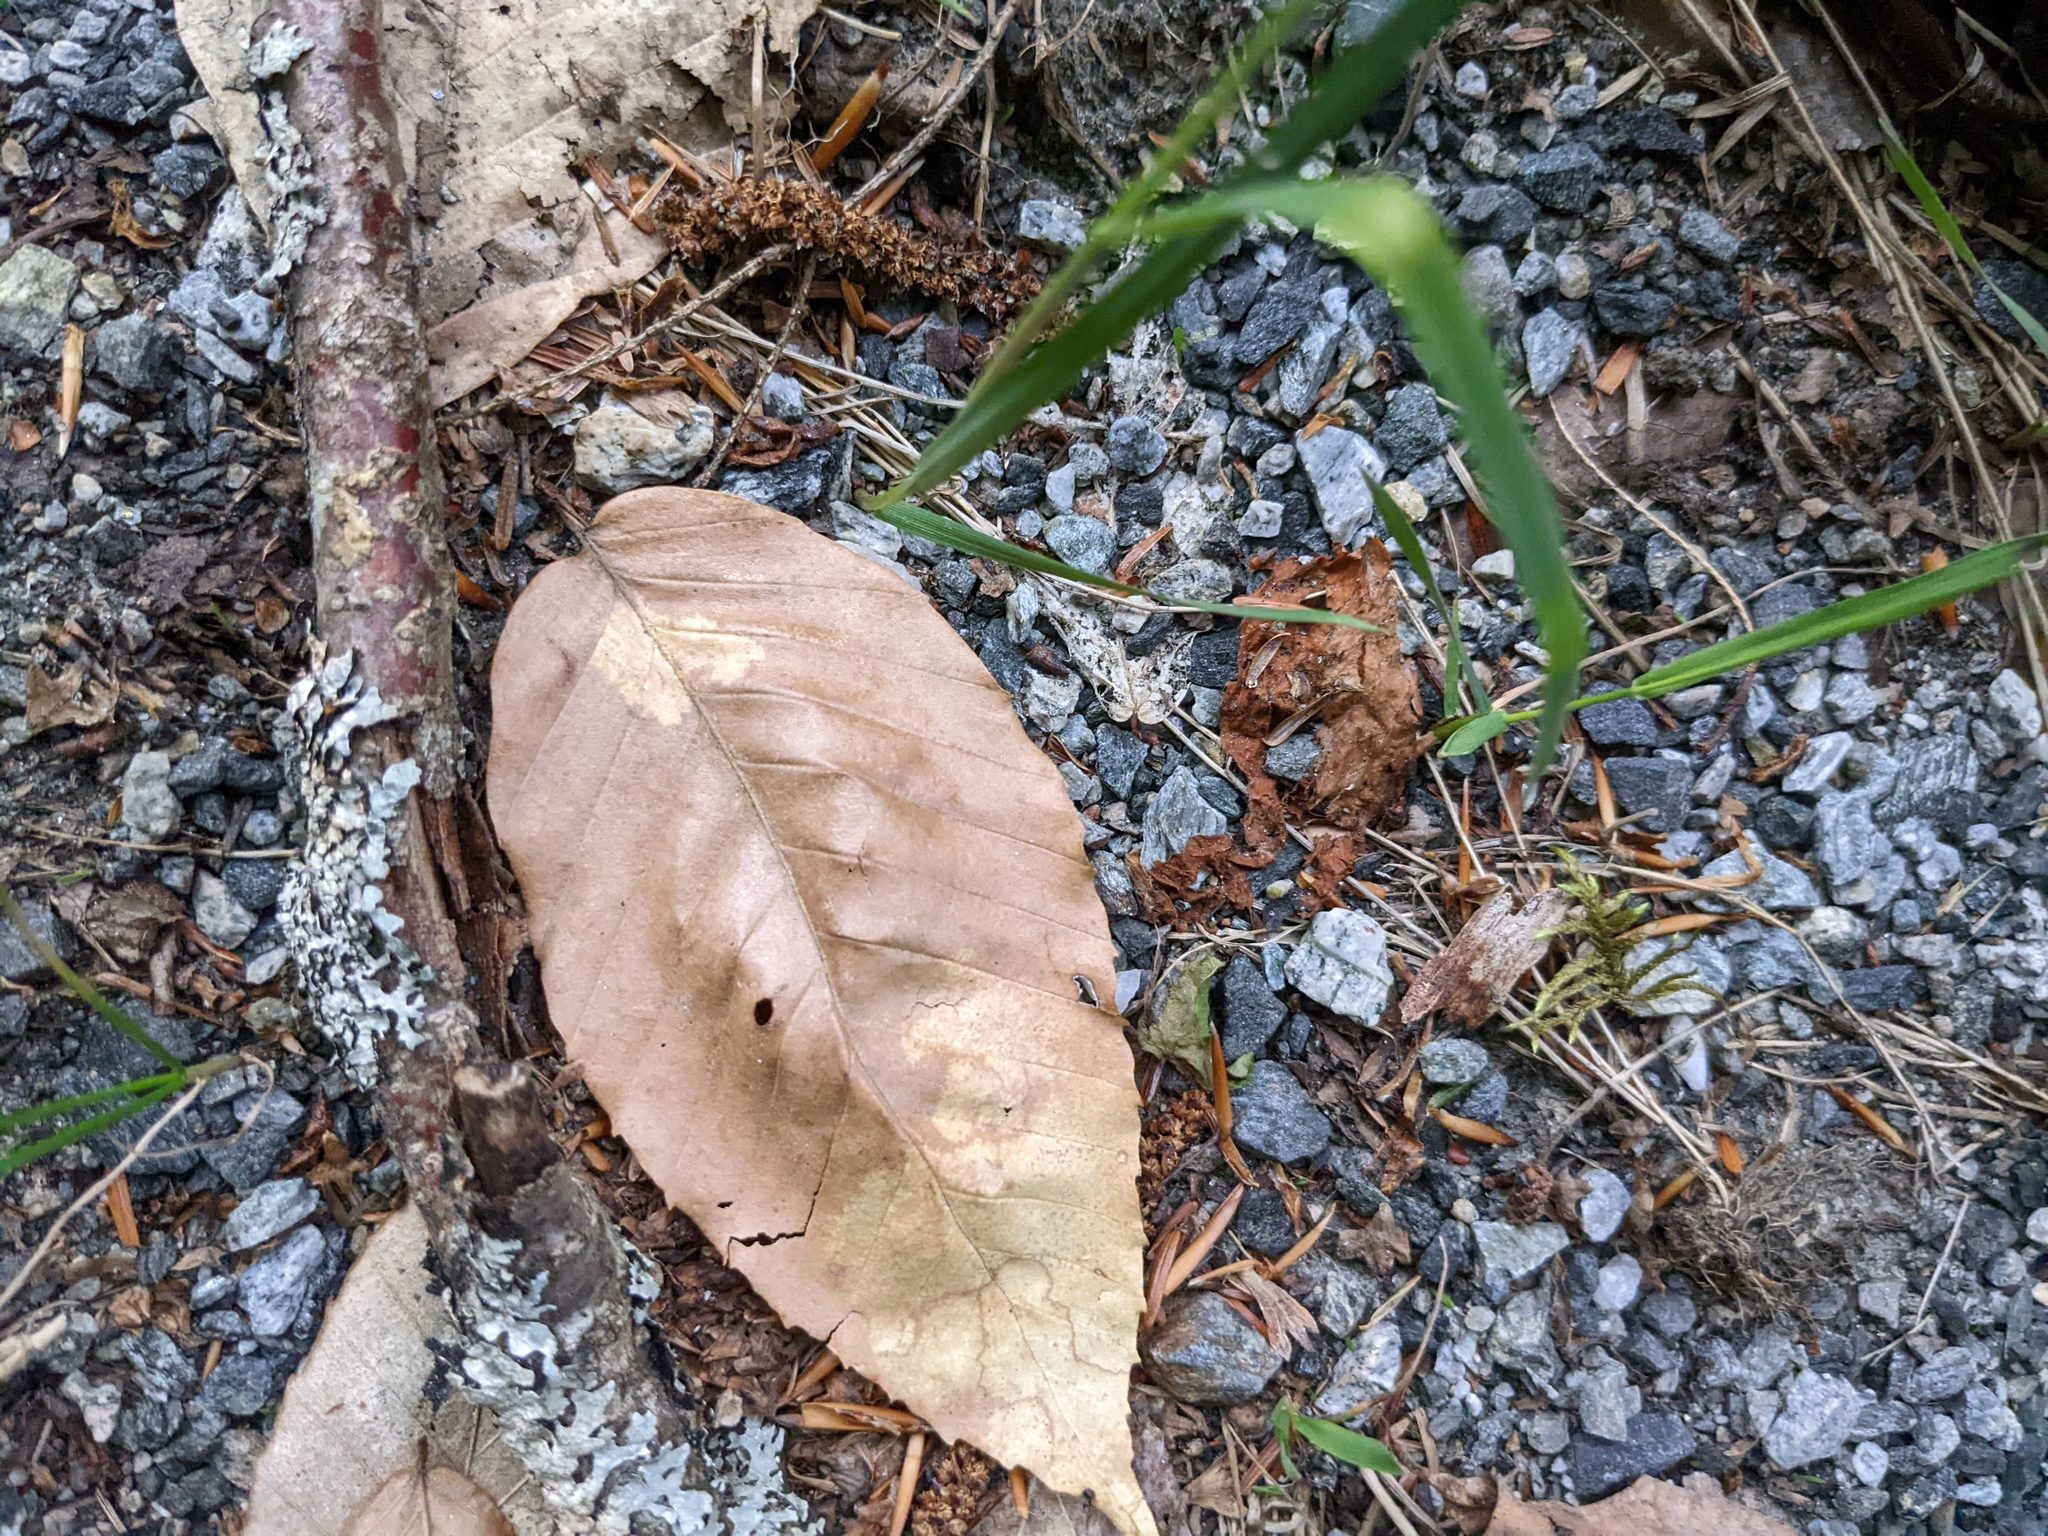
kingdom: Plantae
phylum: Tracheophyta
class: Magnoliopsida
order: Fagales
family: Fagaceae
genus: Fagus
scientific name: Fagus grandifolia
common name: American beech
